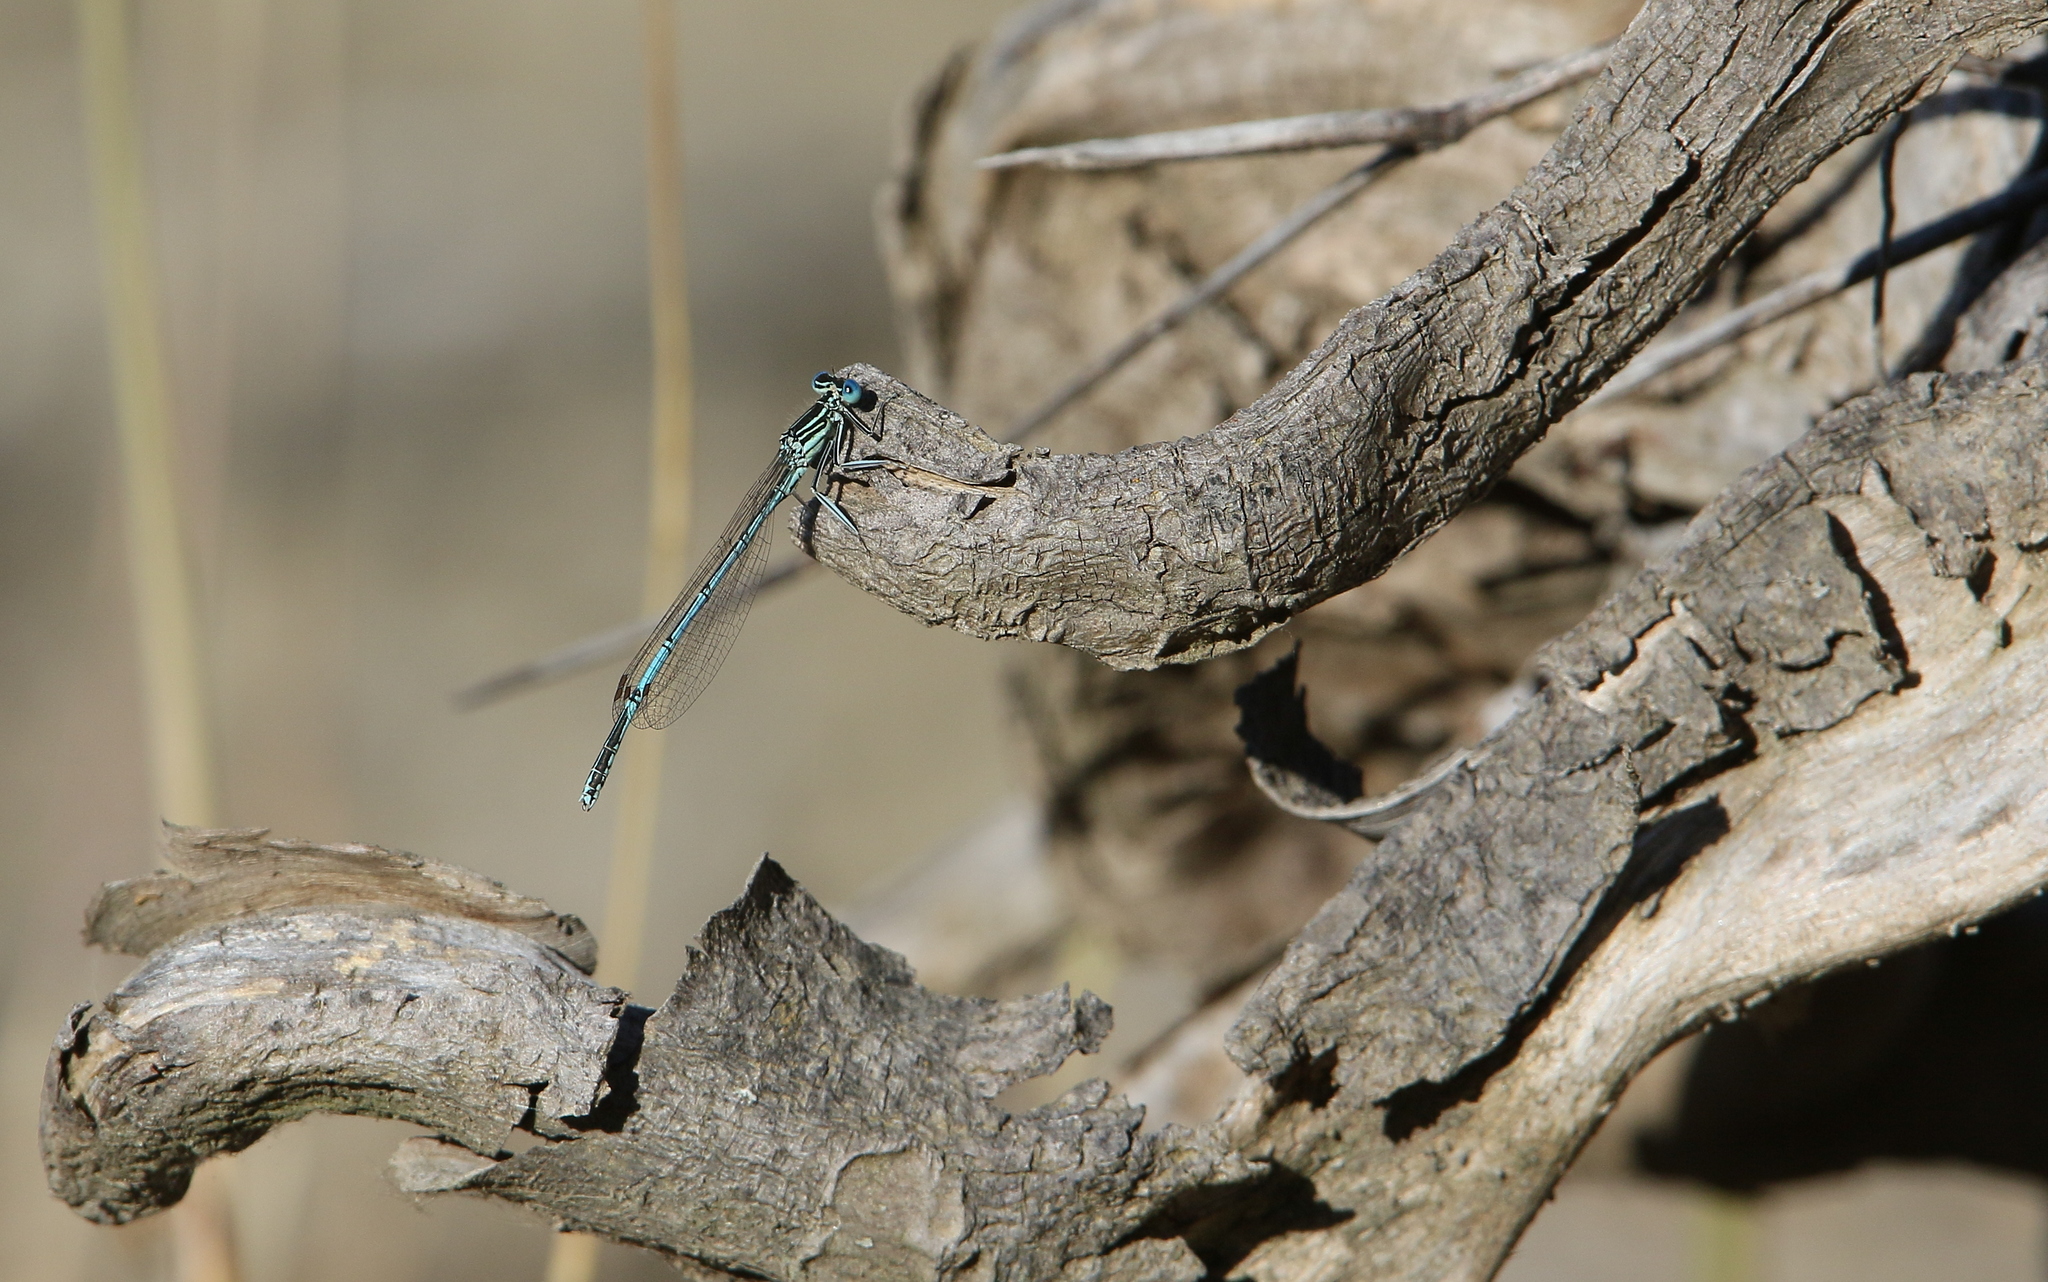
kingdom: Animalia
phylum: Arthropoda
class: Insecta
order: Odonata
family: Platycnemididae
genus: Platycnemis
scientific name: Platycnemis pennipes
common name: White-legged damselfly
